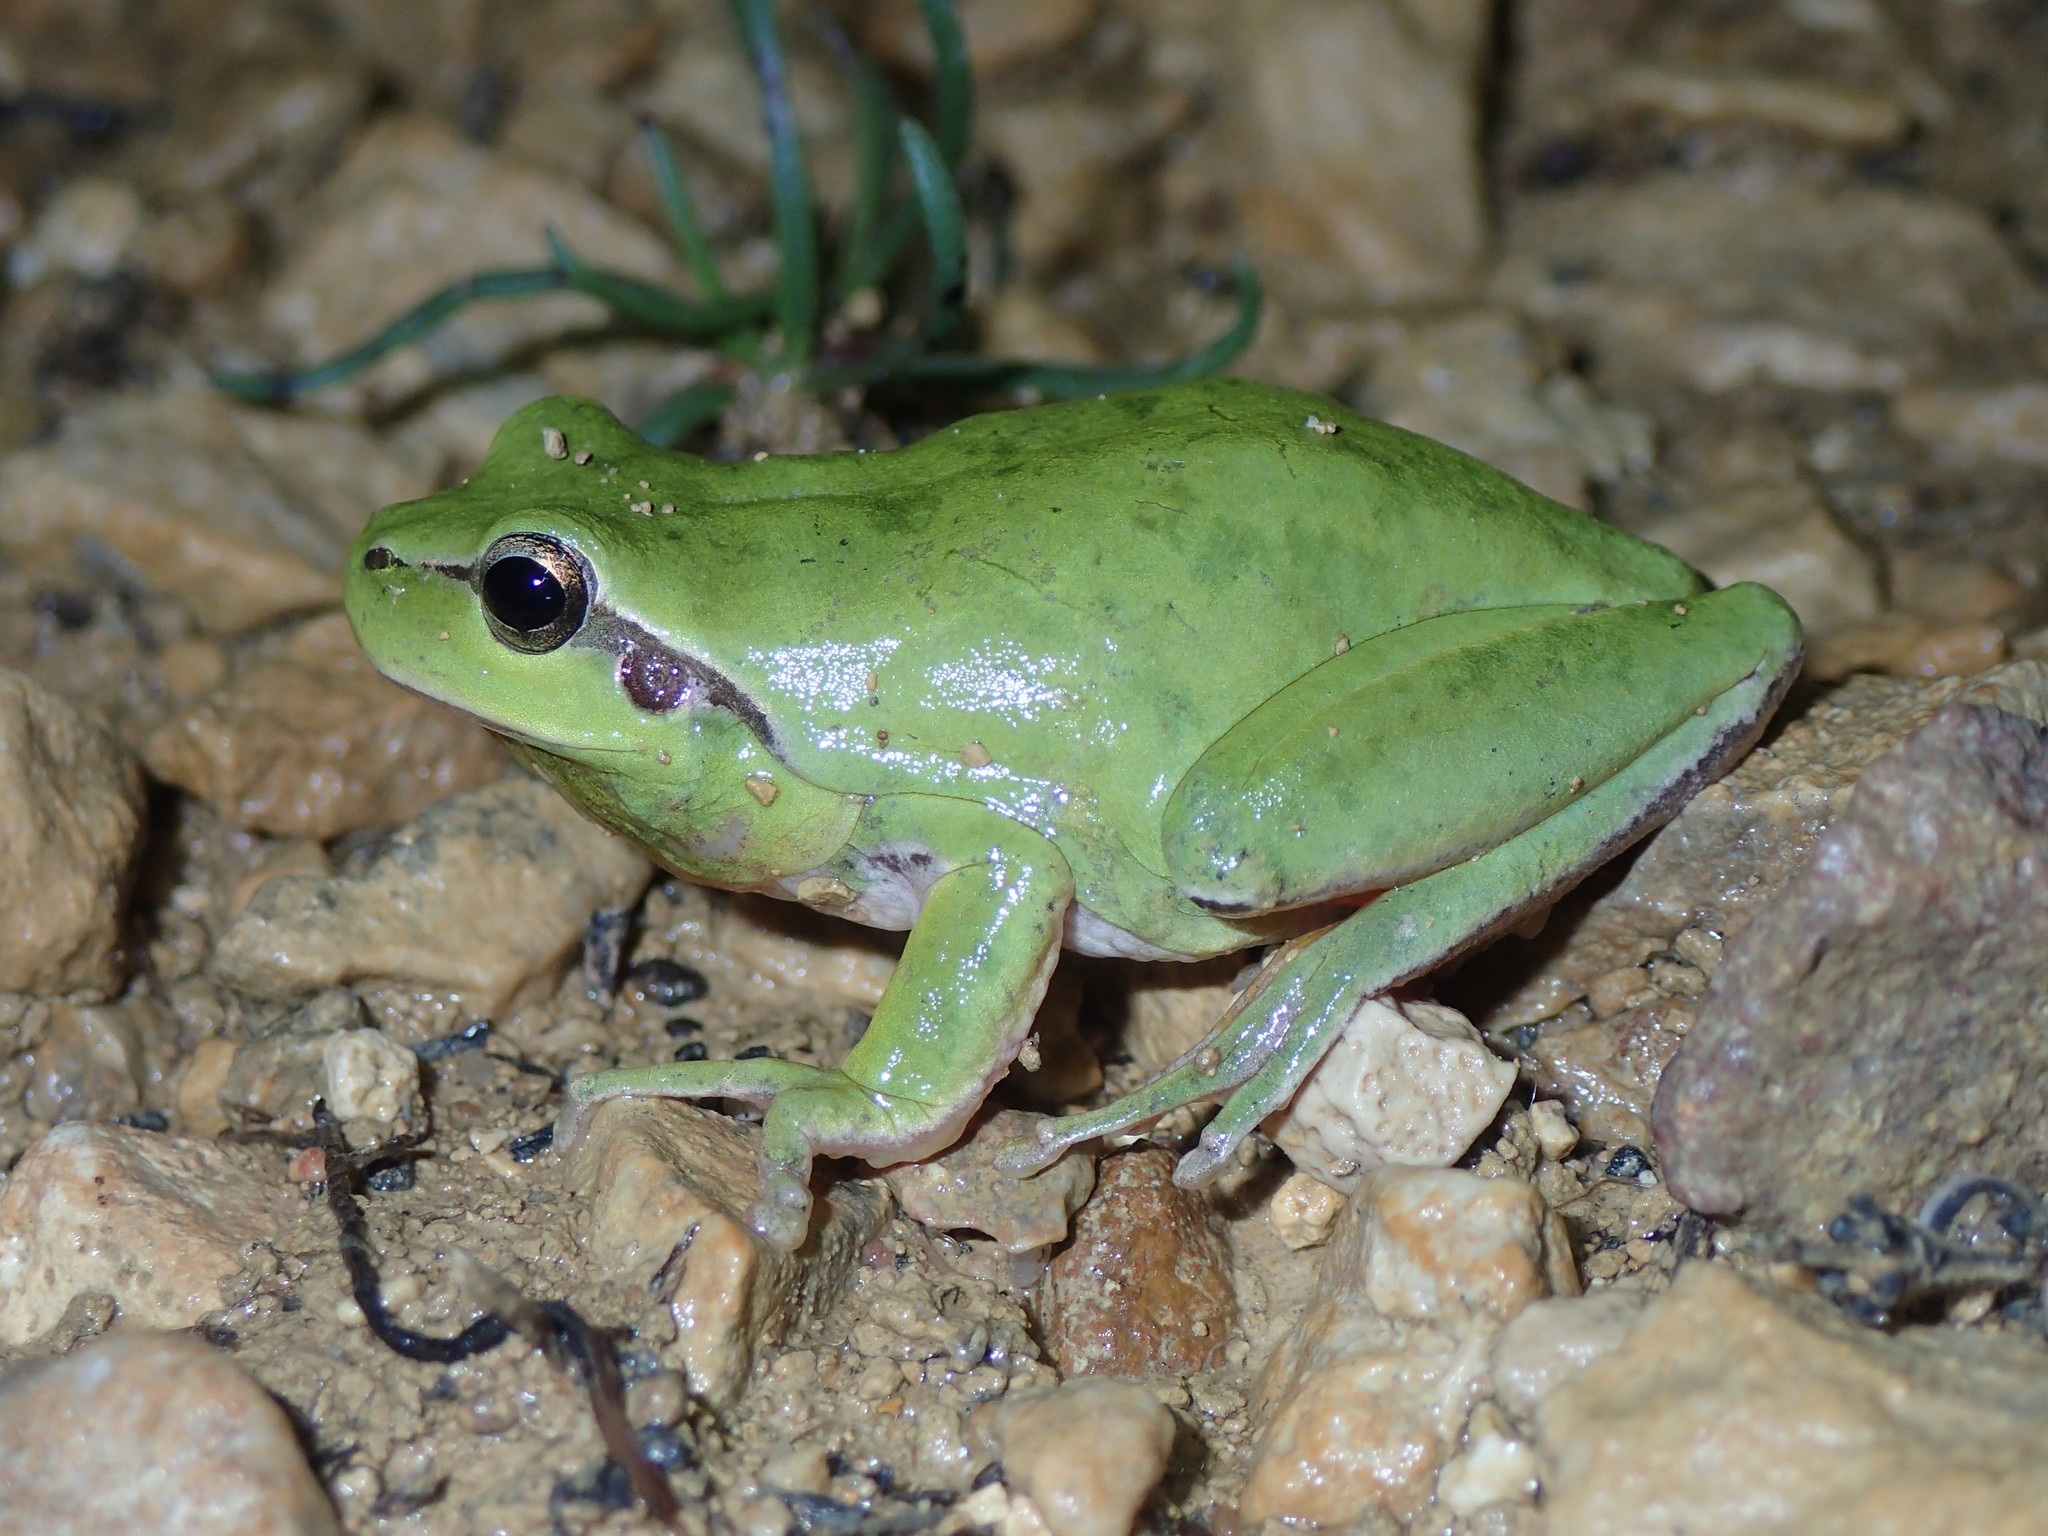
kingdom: Animalia
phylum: Chordata
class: Amphibia
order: Anura
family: Hylidae
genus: Hyla
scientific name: Hyla meridionalis
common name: Stripeless tree frog
